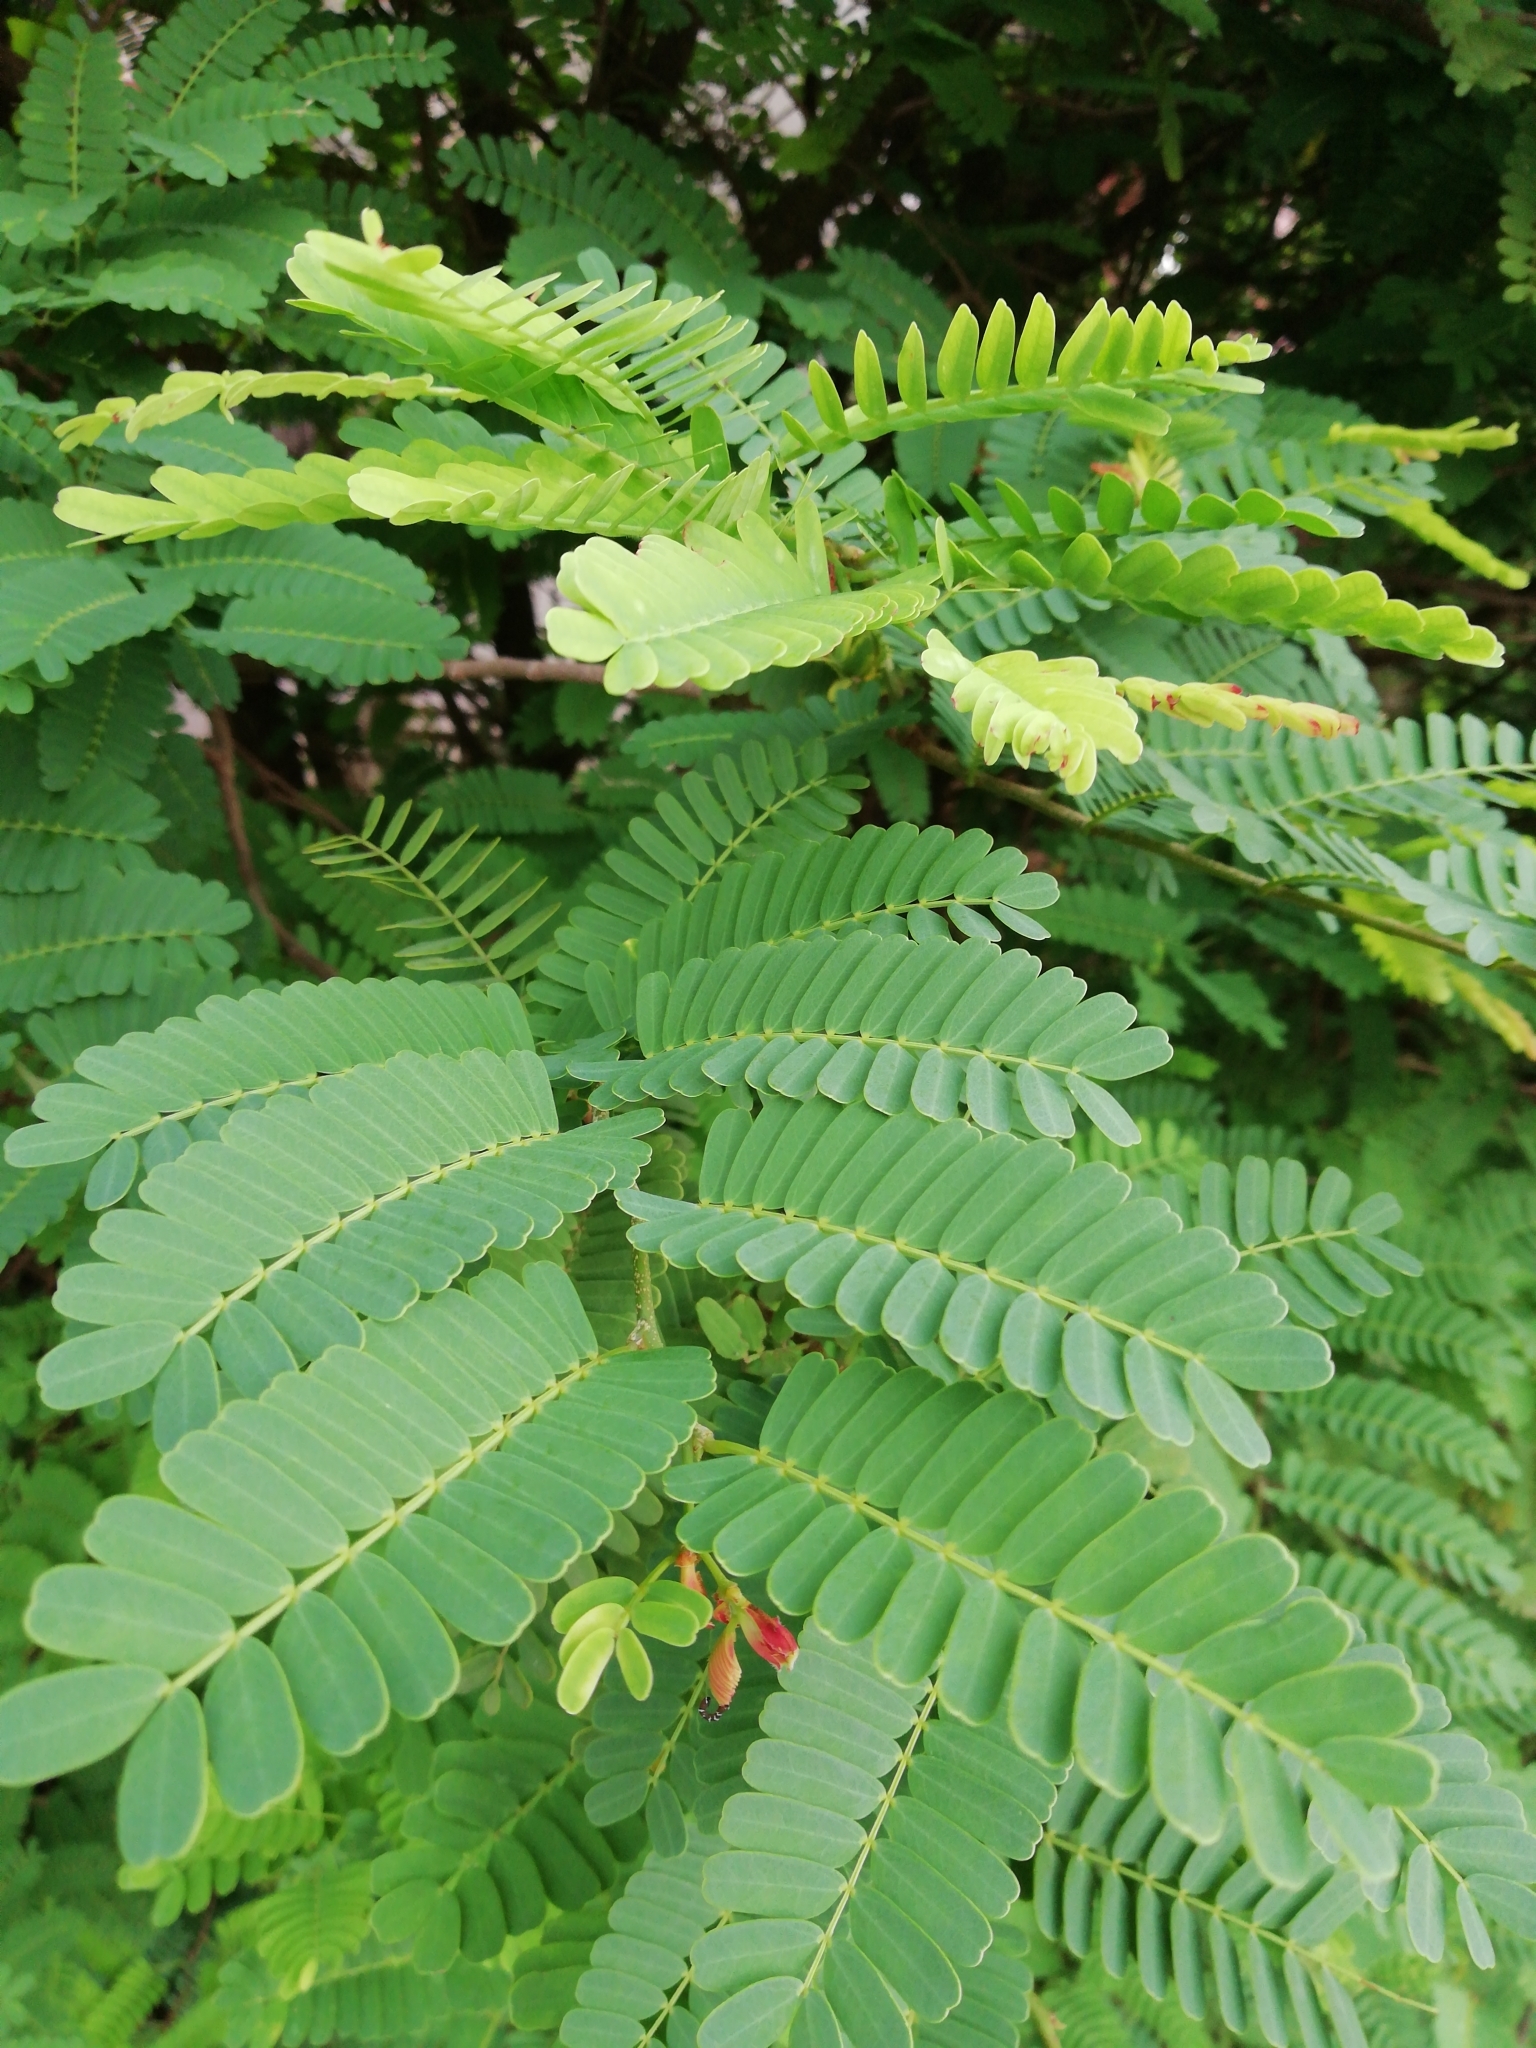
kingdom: Plantae
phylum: Tracheophyta
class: Magnoliopsida
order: Fabales
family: Fabaceae
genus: Tamarindus
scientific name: Tamarindus indica
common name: Tamarind
